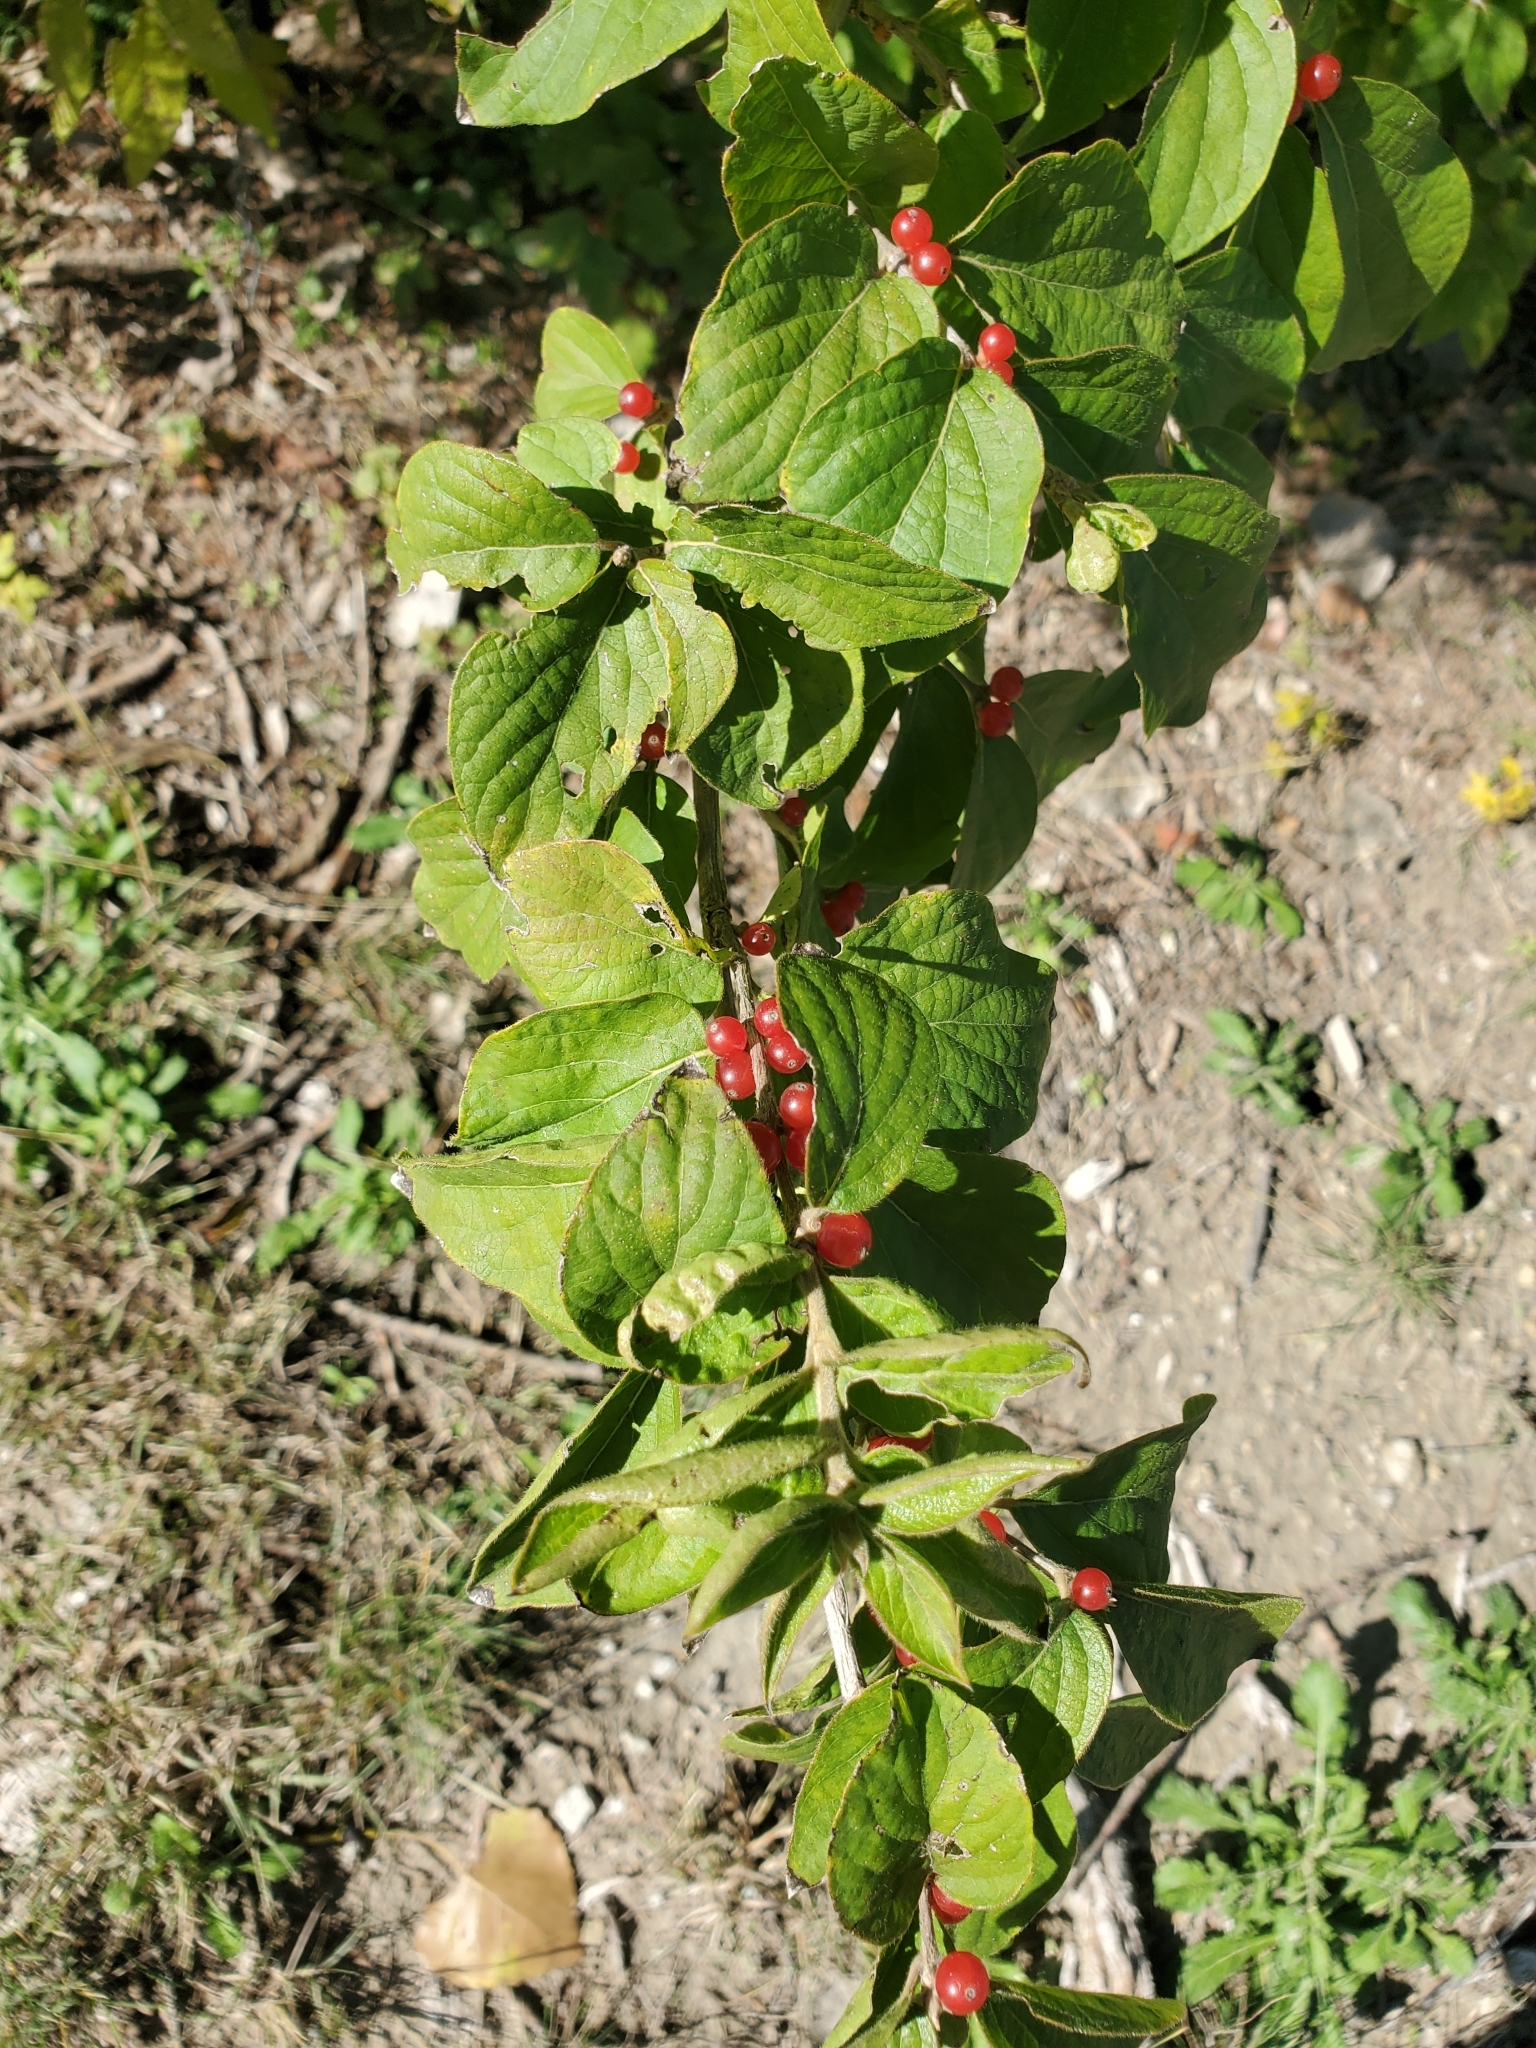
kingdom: Plantae
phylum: Tracheophyta
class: Magnoliopsida
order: Dipsacales
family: Caprifoliaceae
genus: Lonicera
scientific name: Lonicera maackii
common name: Amur honeysuckle
